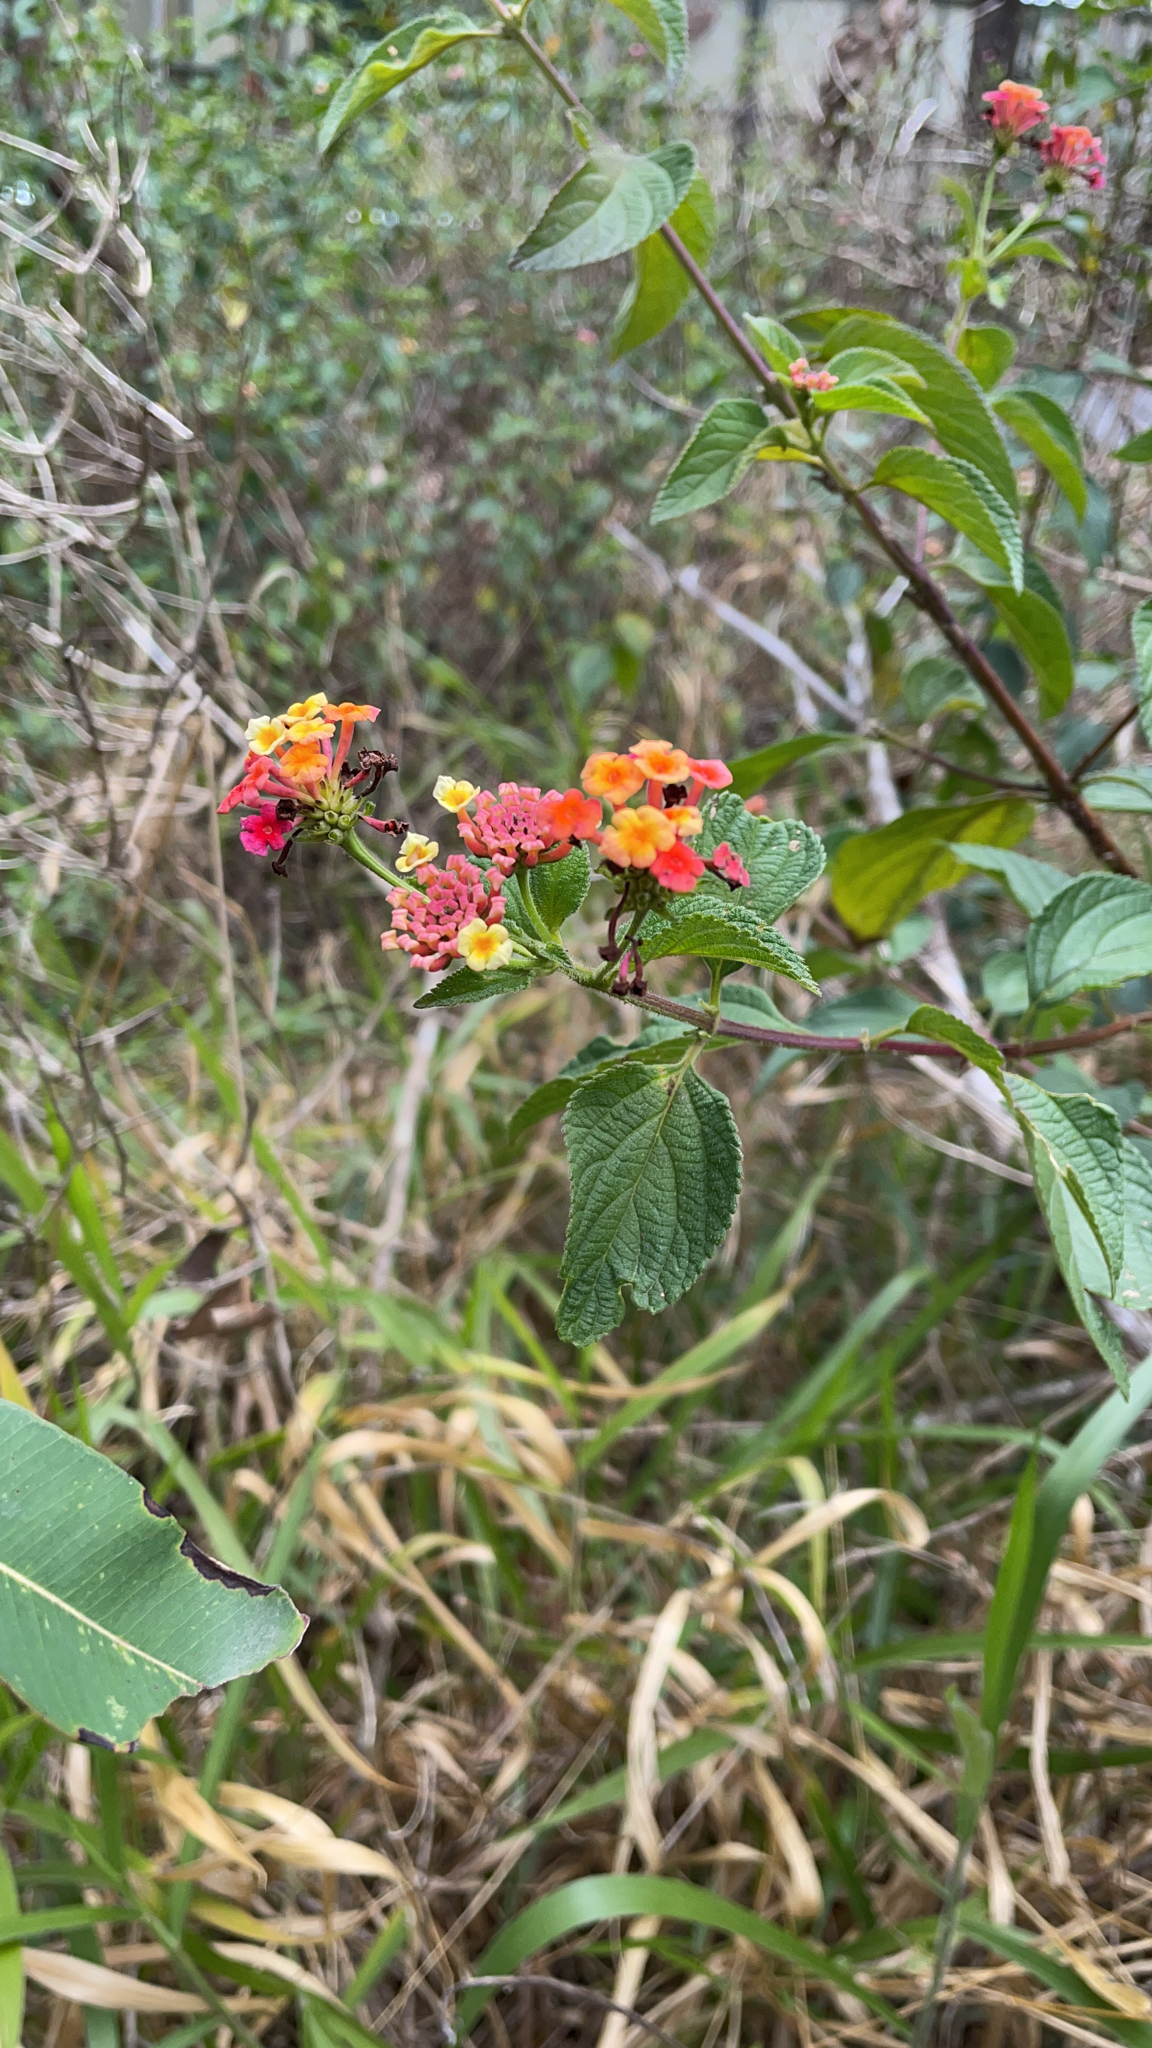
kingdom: Plantae
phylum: Tracheophyta
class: Magnoliopsida
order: Lamiales
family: Verbenaceae
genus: Lantana
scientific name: Lantana camara
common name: Lantana
